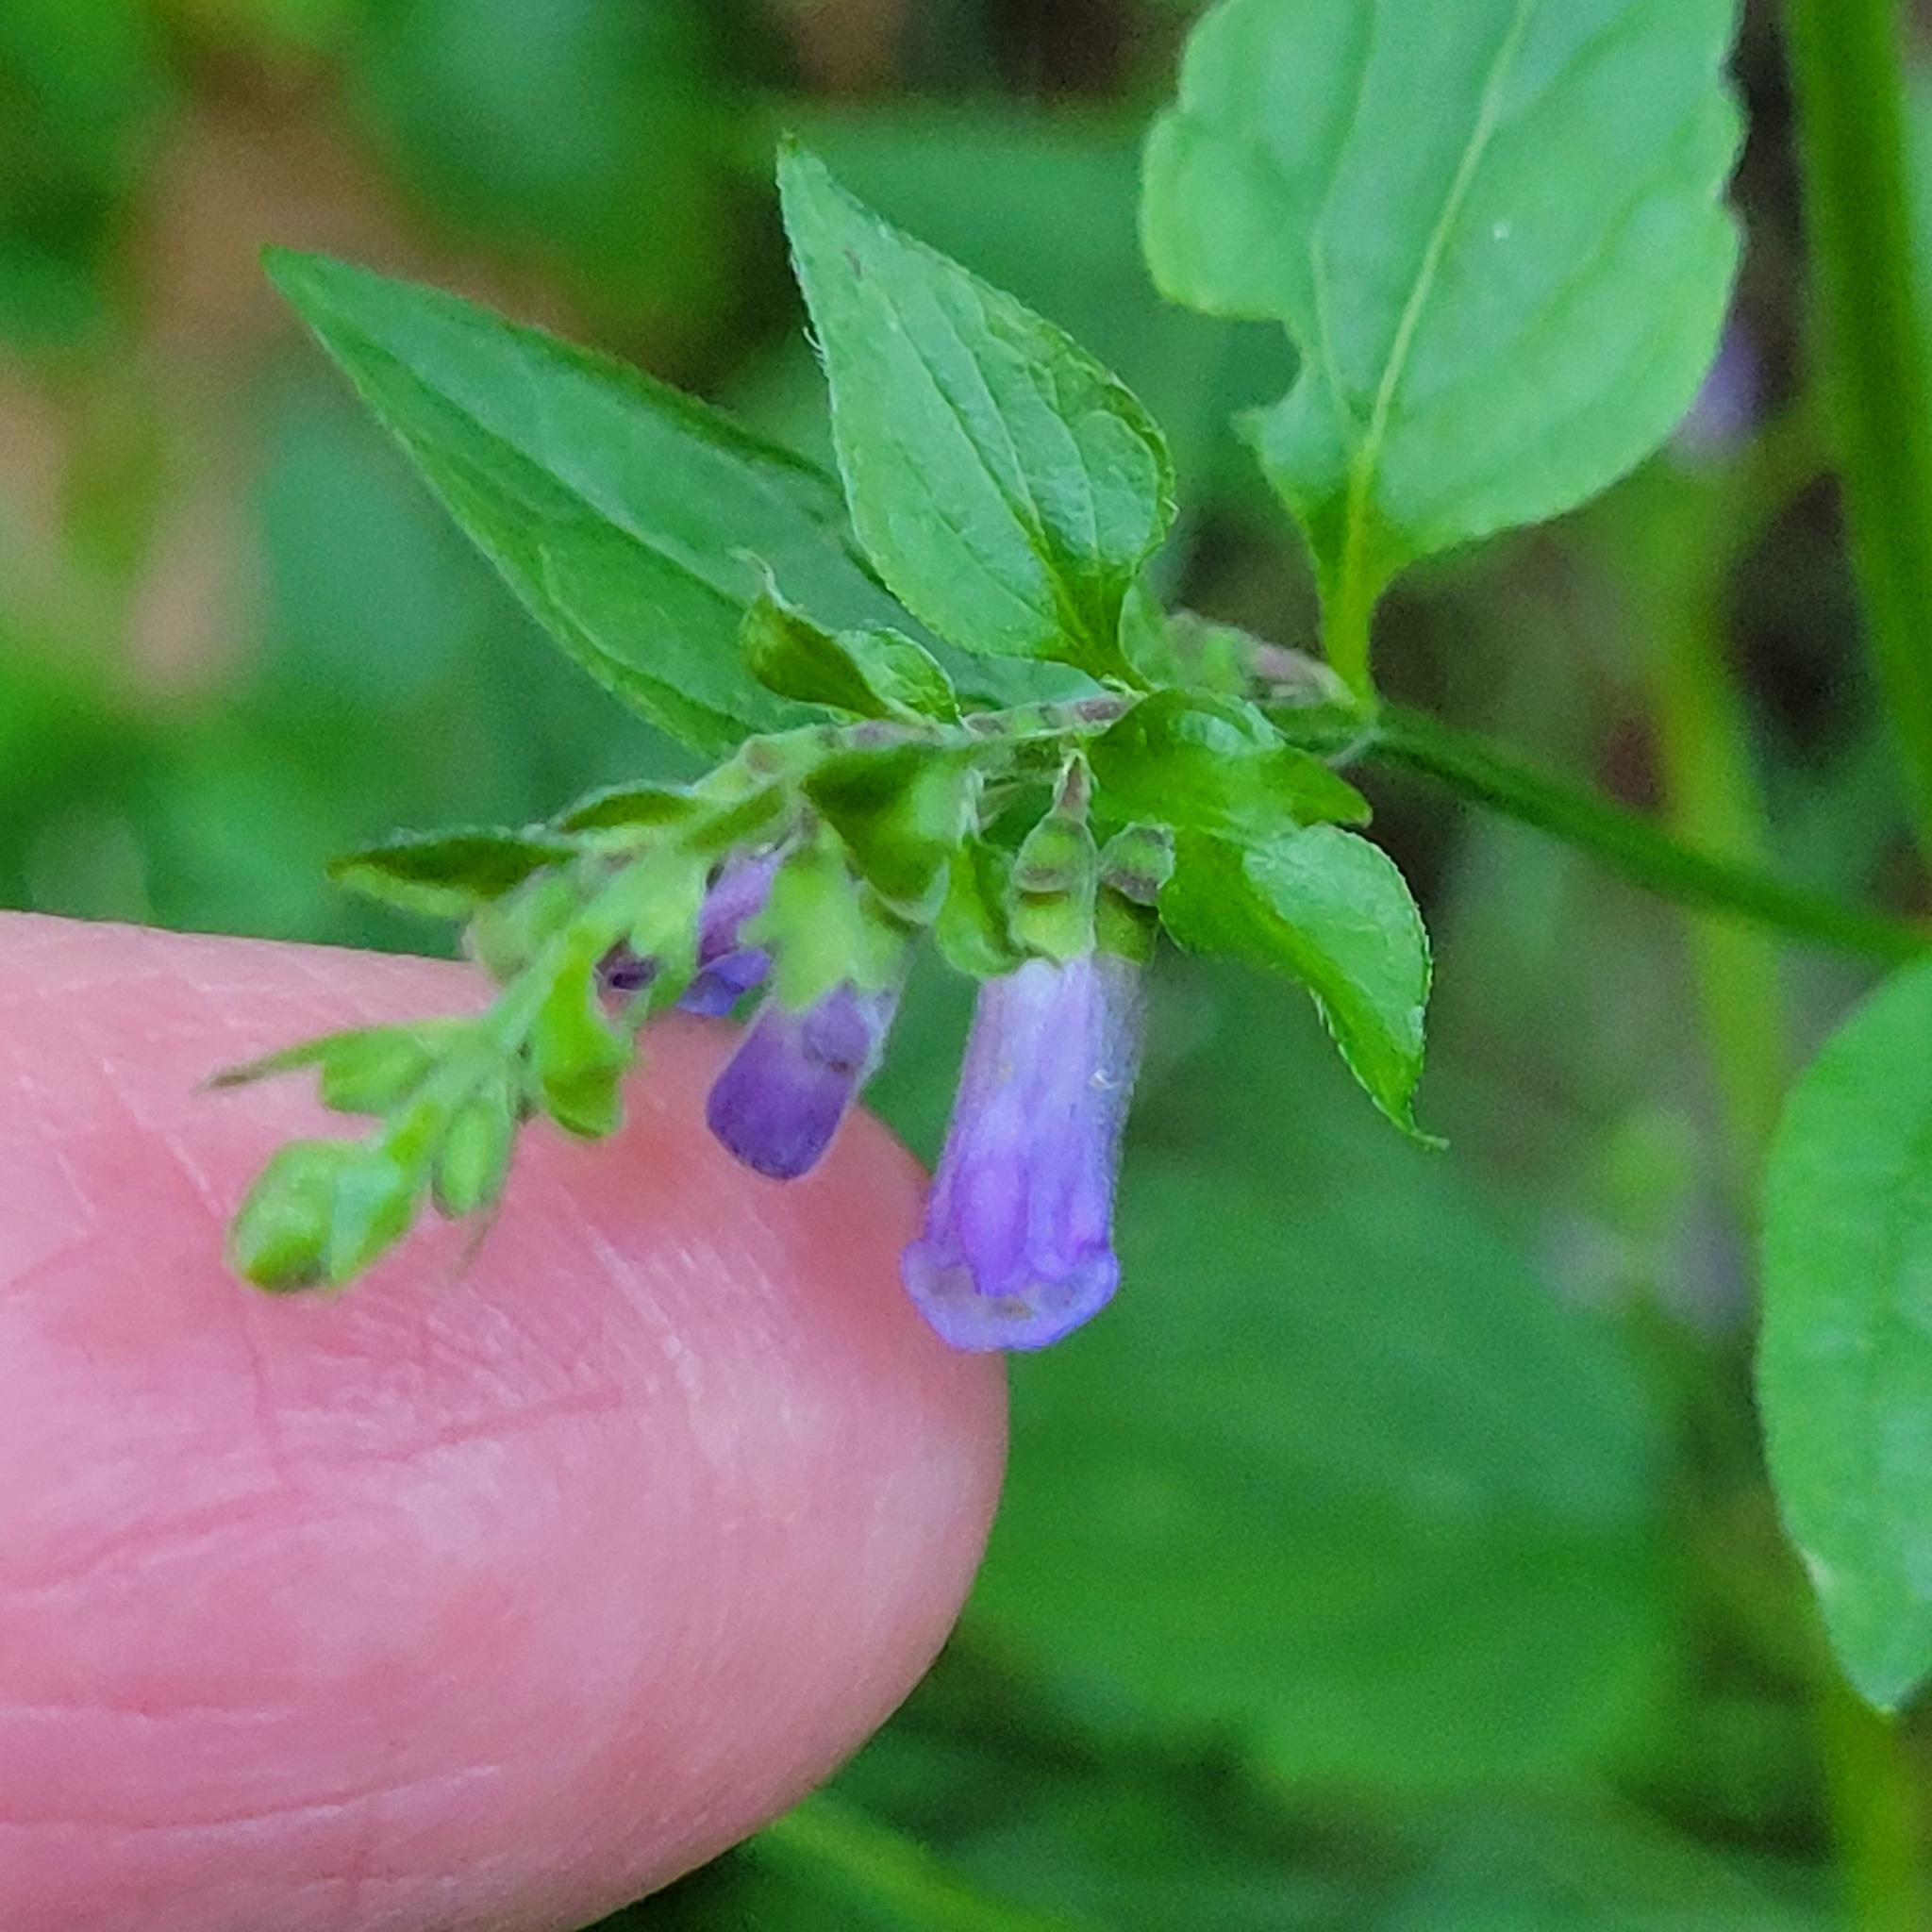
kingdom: Plantae
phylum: Tracheophyta
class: Magnoliopsida
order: Lamiales
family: Lamiaceae
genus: Scutellaria
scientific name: Scutellaria lateriflora
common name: Blue skullcap
